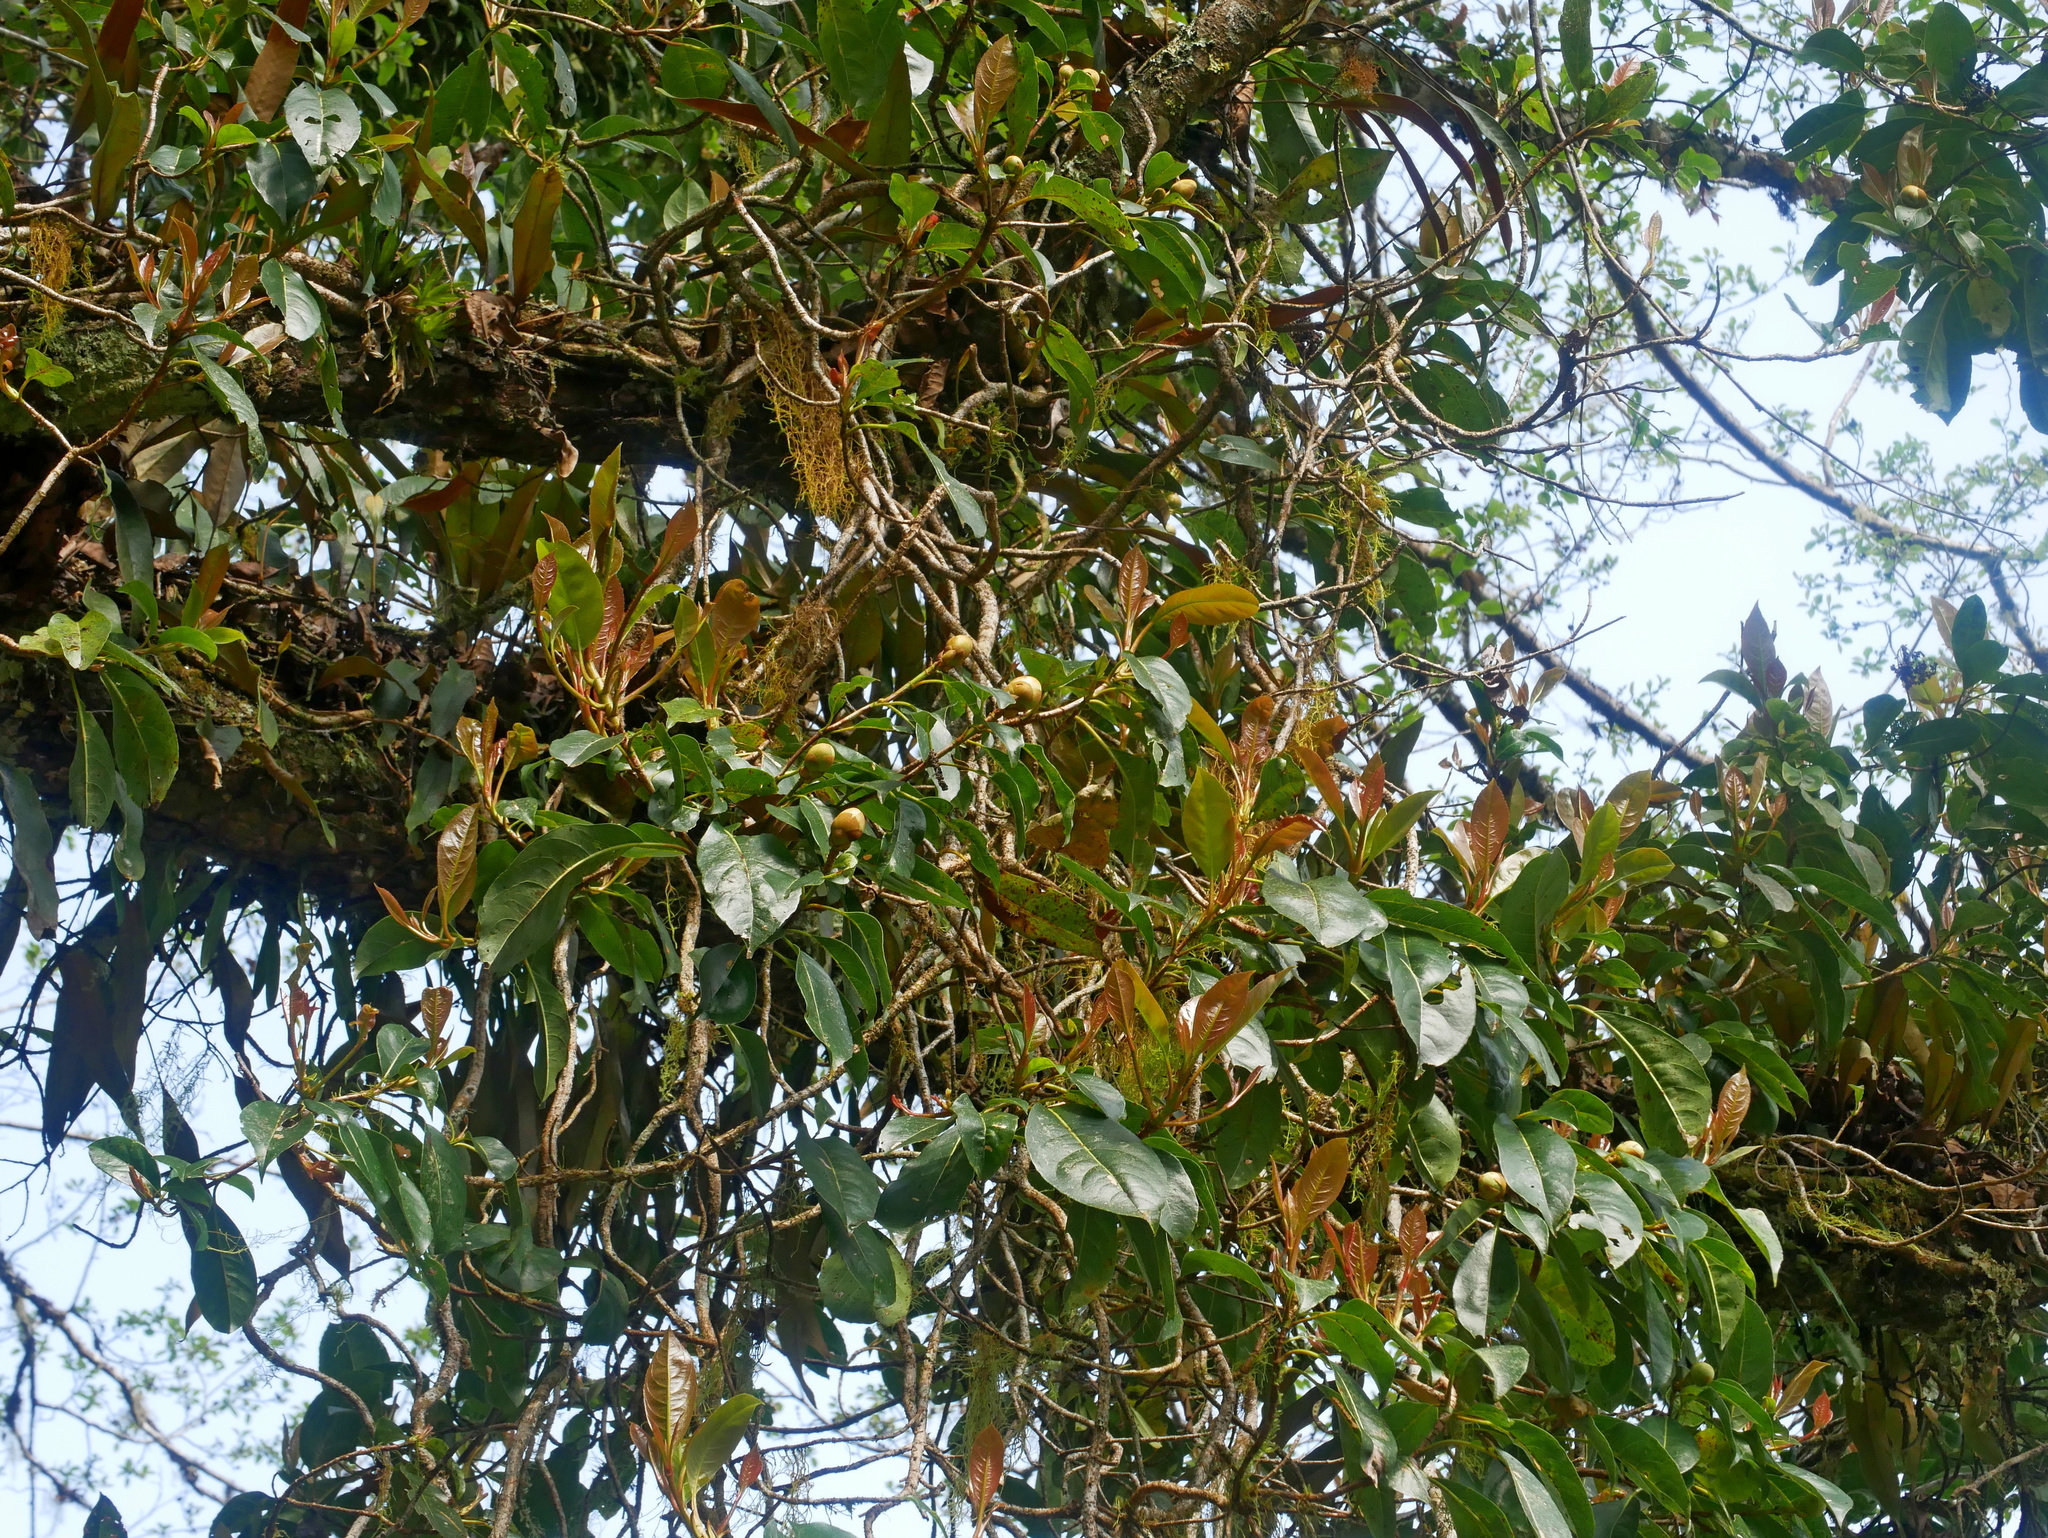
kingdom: Plantae
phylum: Tracheophyta
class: Magnoliopsida
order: Cornales
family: Hydrangeaceae
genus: Hydrangea
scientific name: Hydrangea integrifolia
